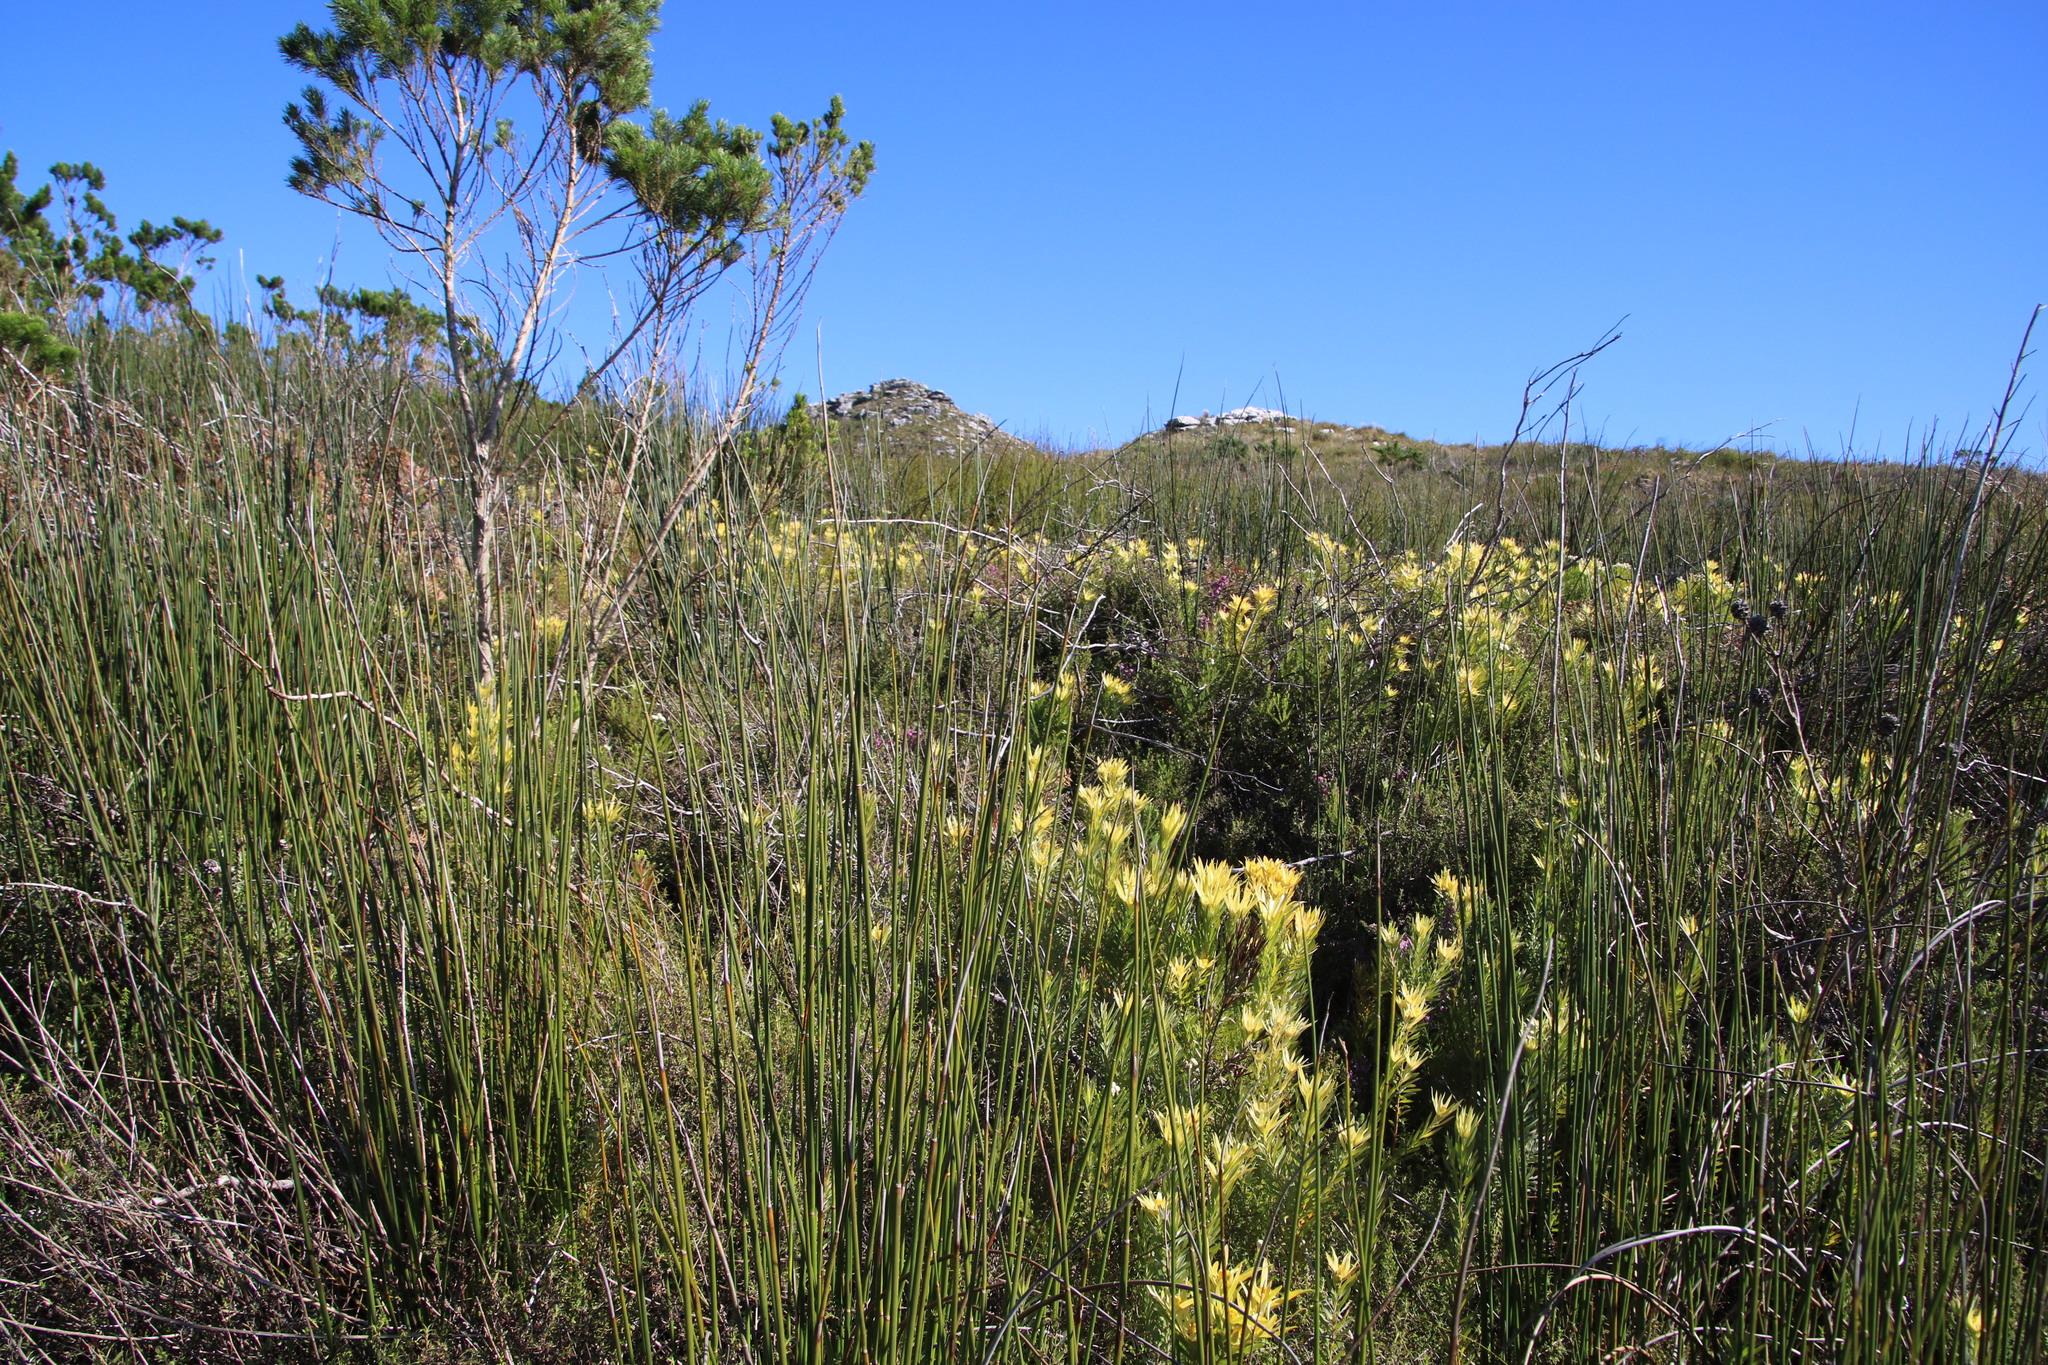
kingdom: Plantae
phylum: Tracheophyta
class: Magnoliopsida
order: Ericales
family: Ericaceae
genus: Erica
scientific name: Erica hirtiflora
